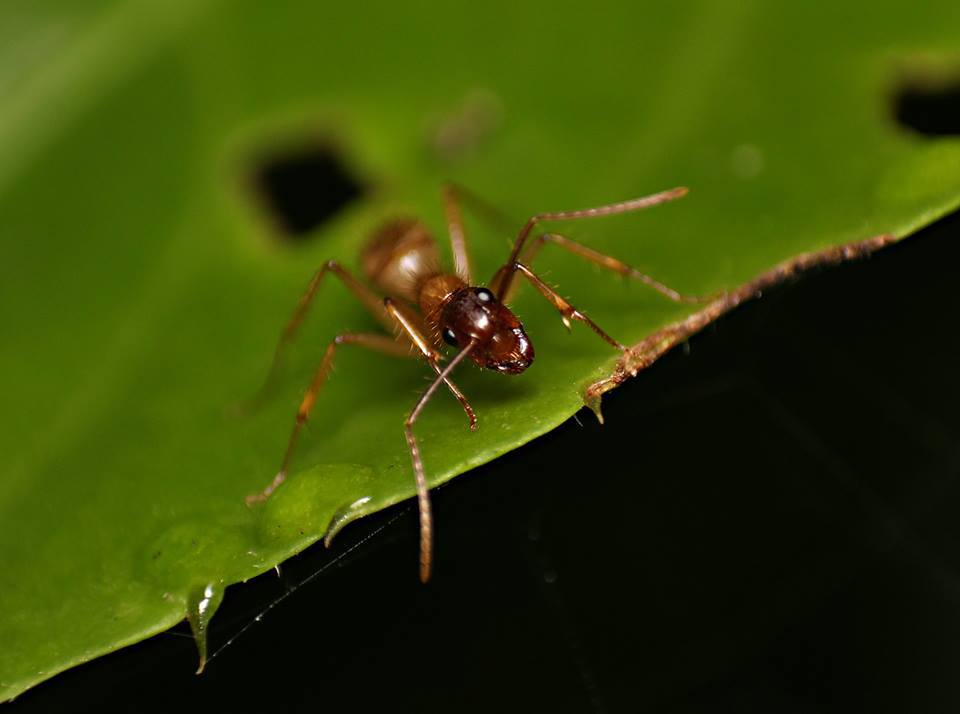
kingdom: Animalia
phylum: Arthropoda
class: Insecta
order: Hymenoptera
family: Formicidae
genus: Camponotus
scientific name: Camponotus atriceps
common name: Florida carpenter ant
